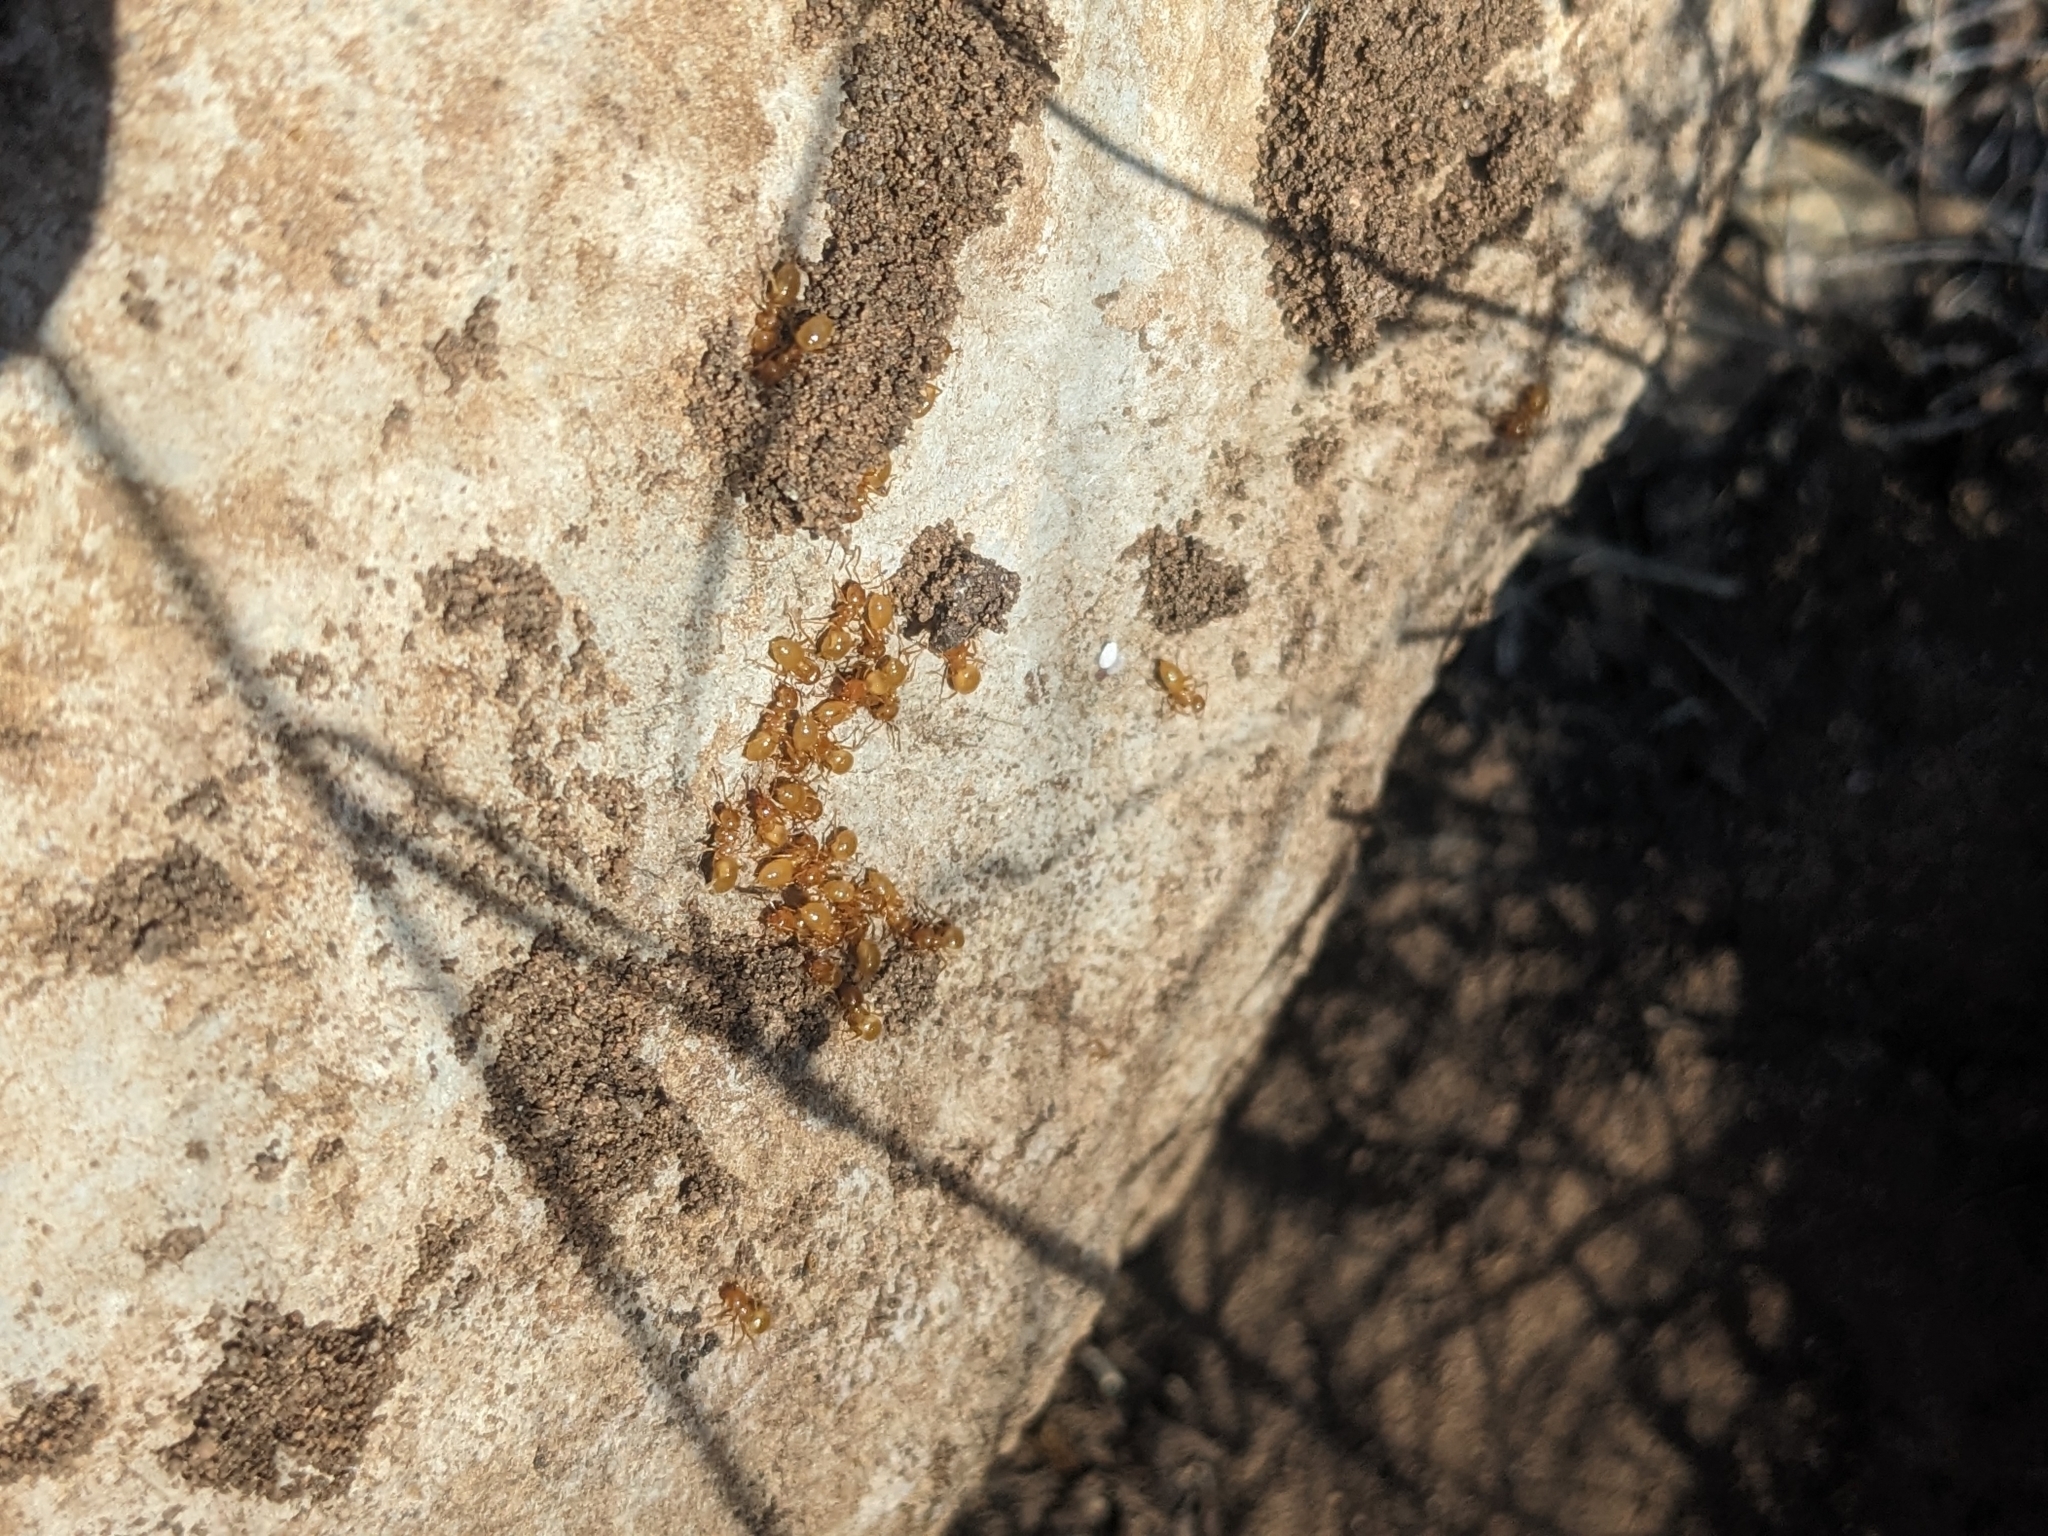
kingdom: Animalia
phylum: Arthropoda
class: Insecta
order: Hymenoptera
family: Formicidae
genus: Lasius
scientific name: Lasius arizonicus
